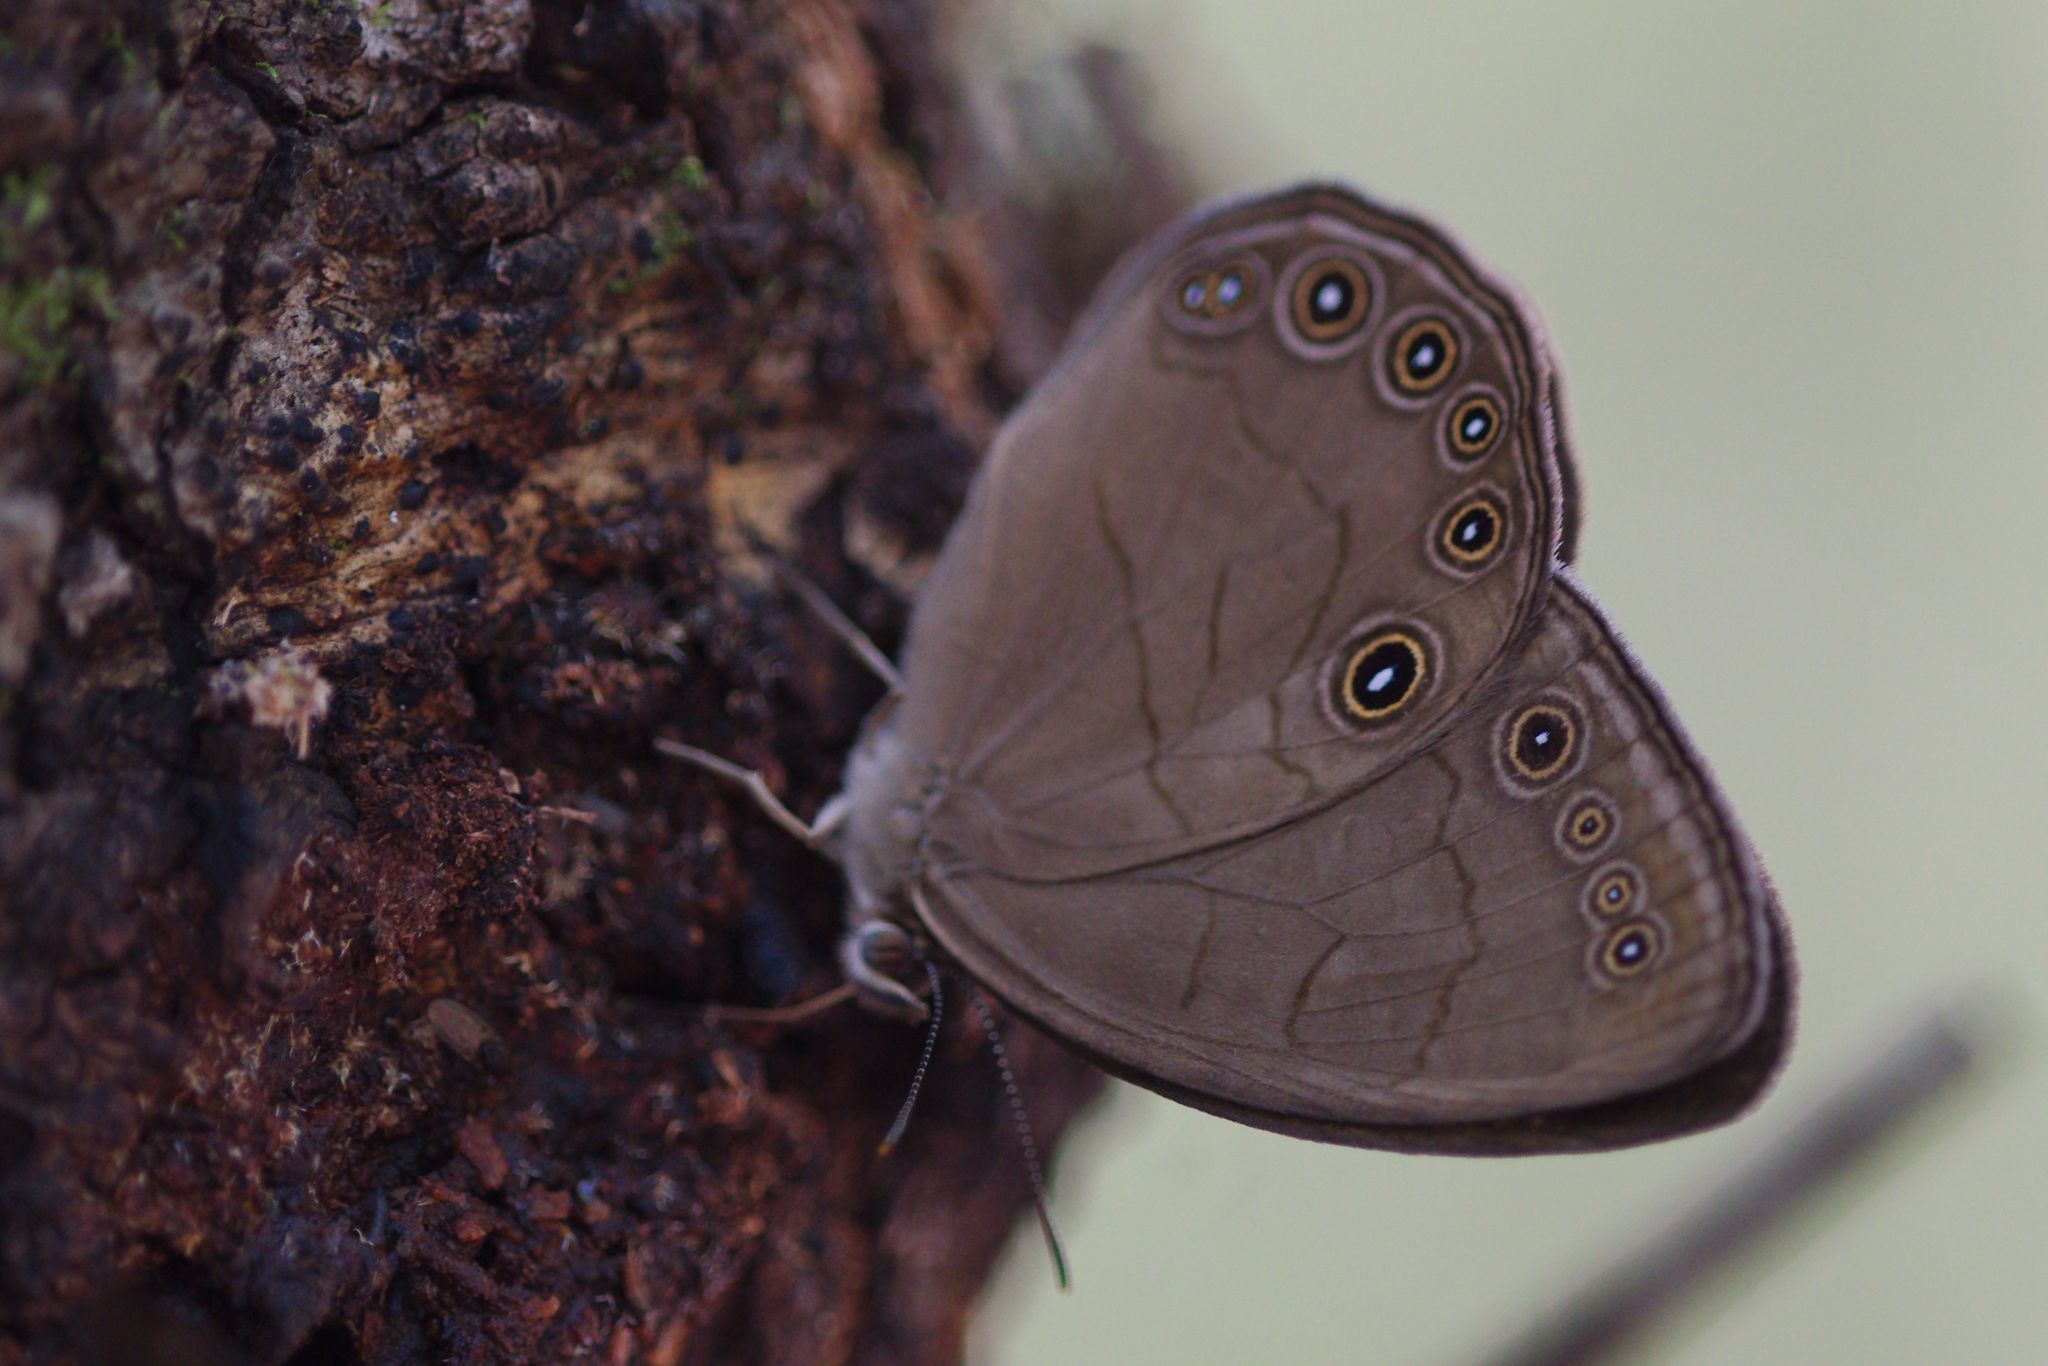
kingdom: Animalia
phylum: Arthropoda
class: Insecta
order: Lepidoptera
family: Nymphalidae
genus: Lethe
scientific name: Lethe eurydice
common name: Eyed brown
